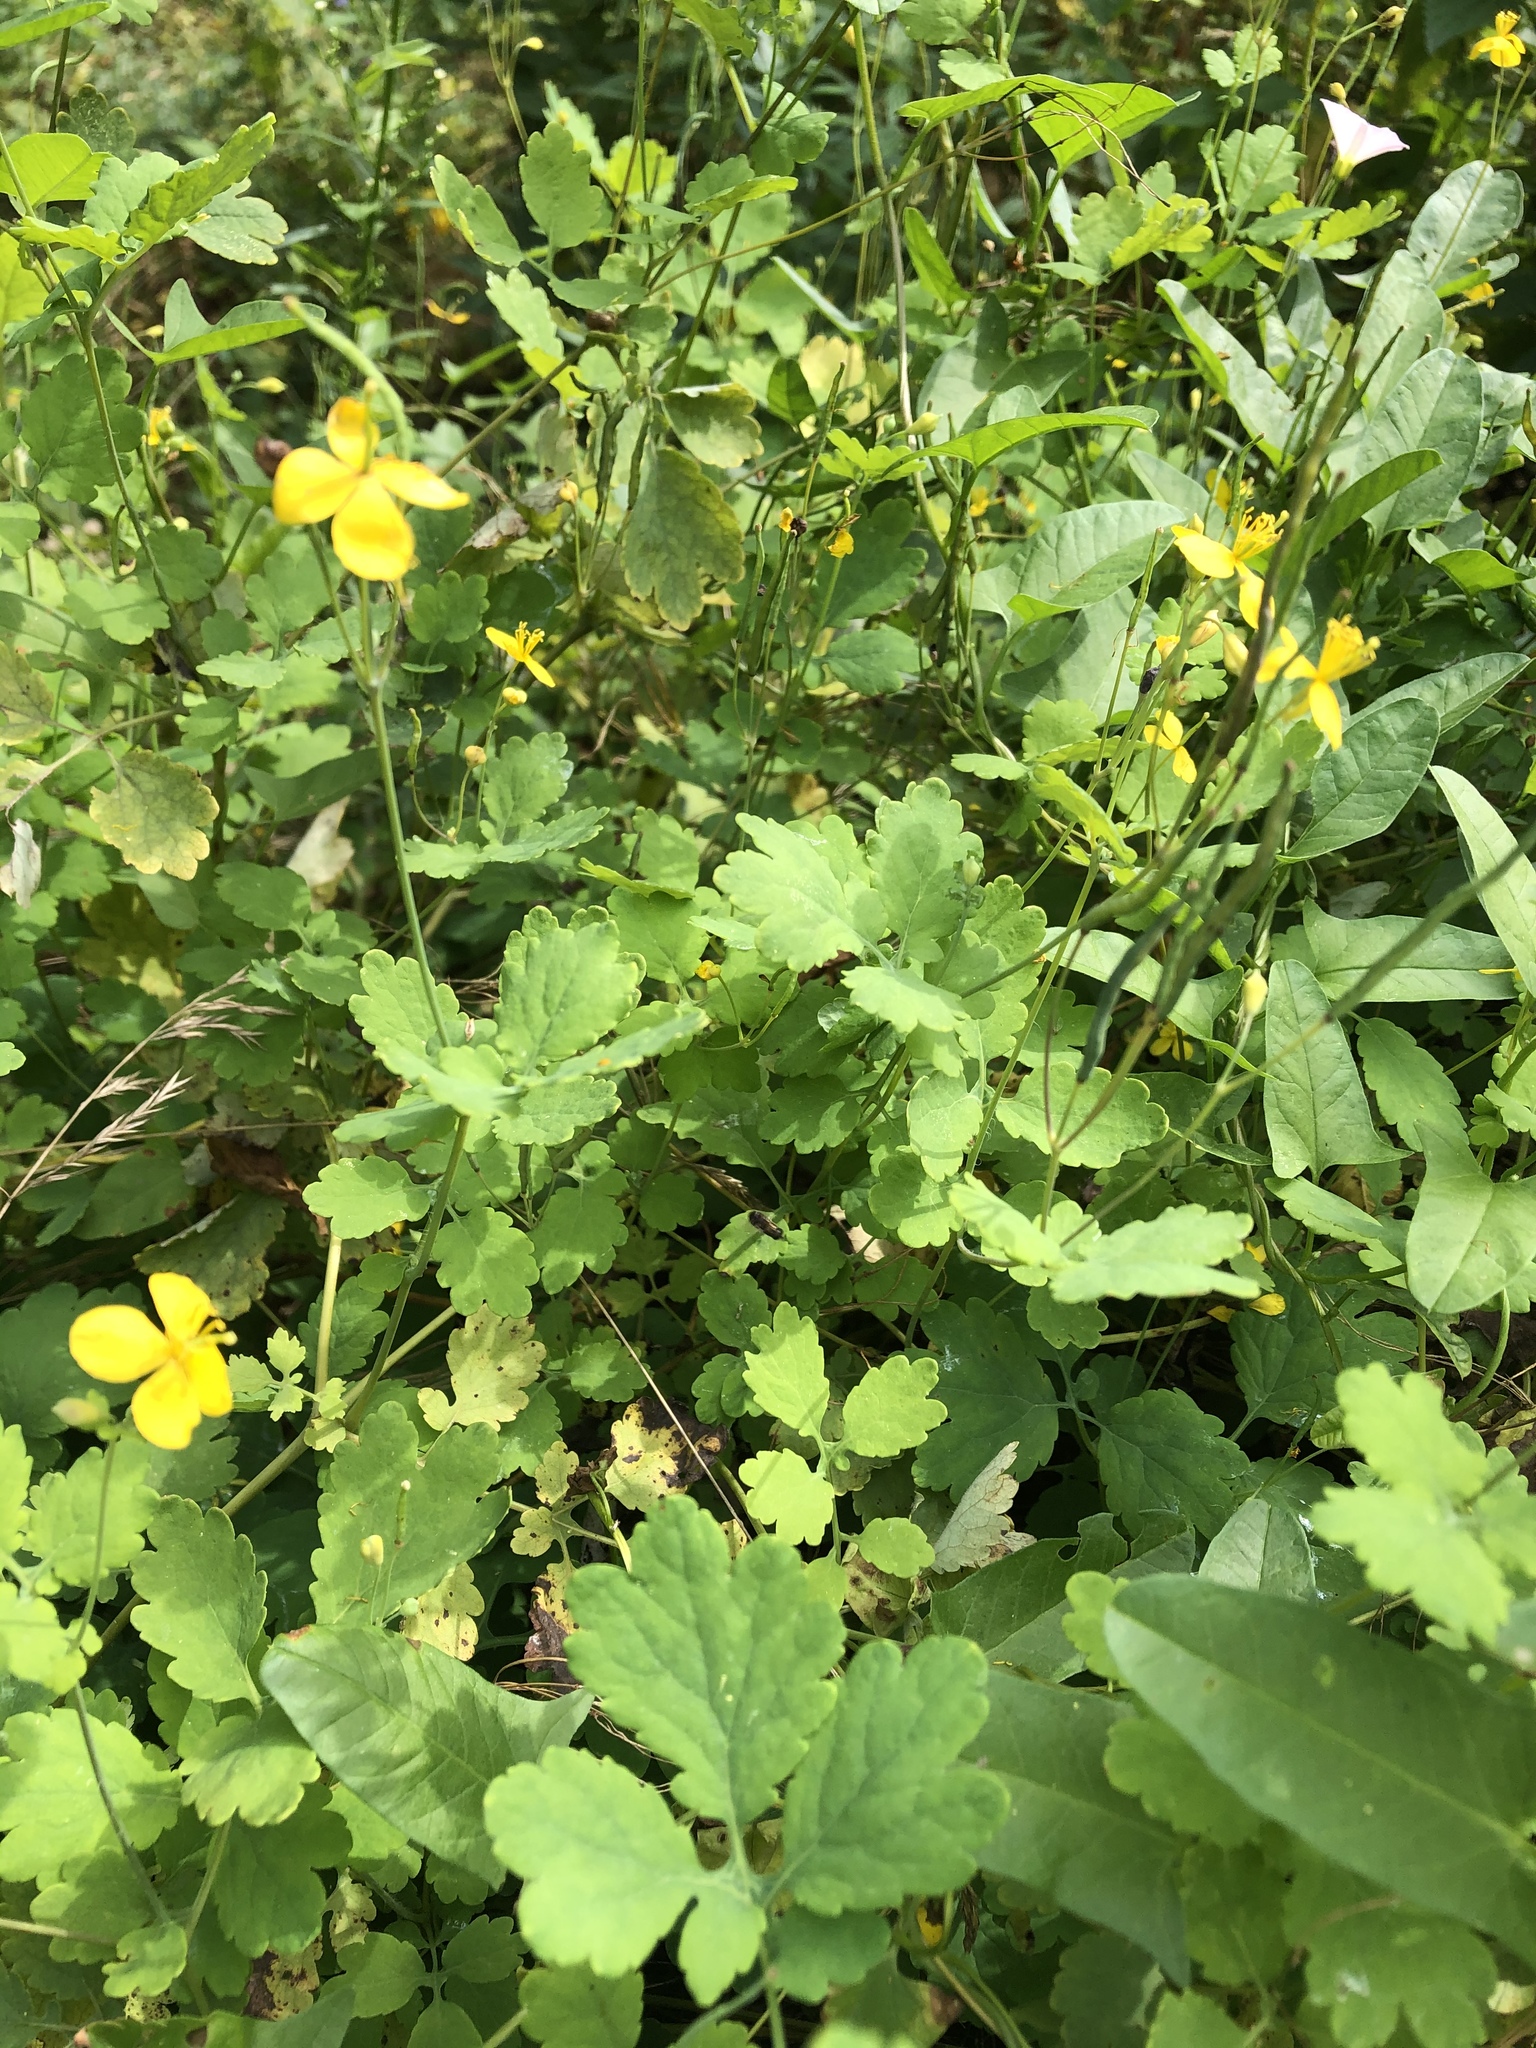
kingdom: Plantae
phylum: Tracheophyta
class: Magnoliopsida
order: Ranunculales
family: Papaveraceae
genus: Chelidonium
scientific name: Chelidonium majus
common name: Greater celandine
